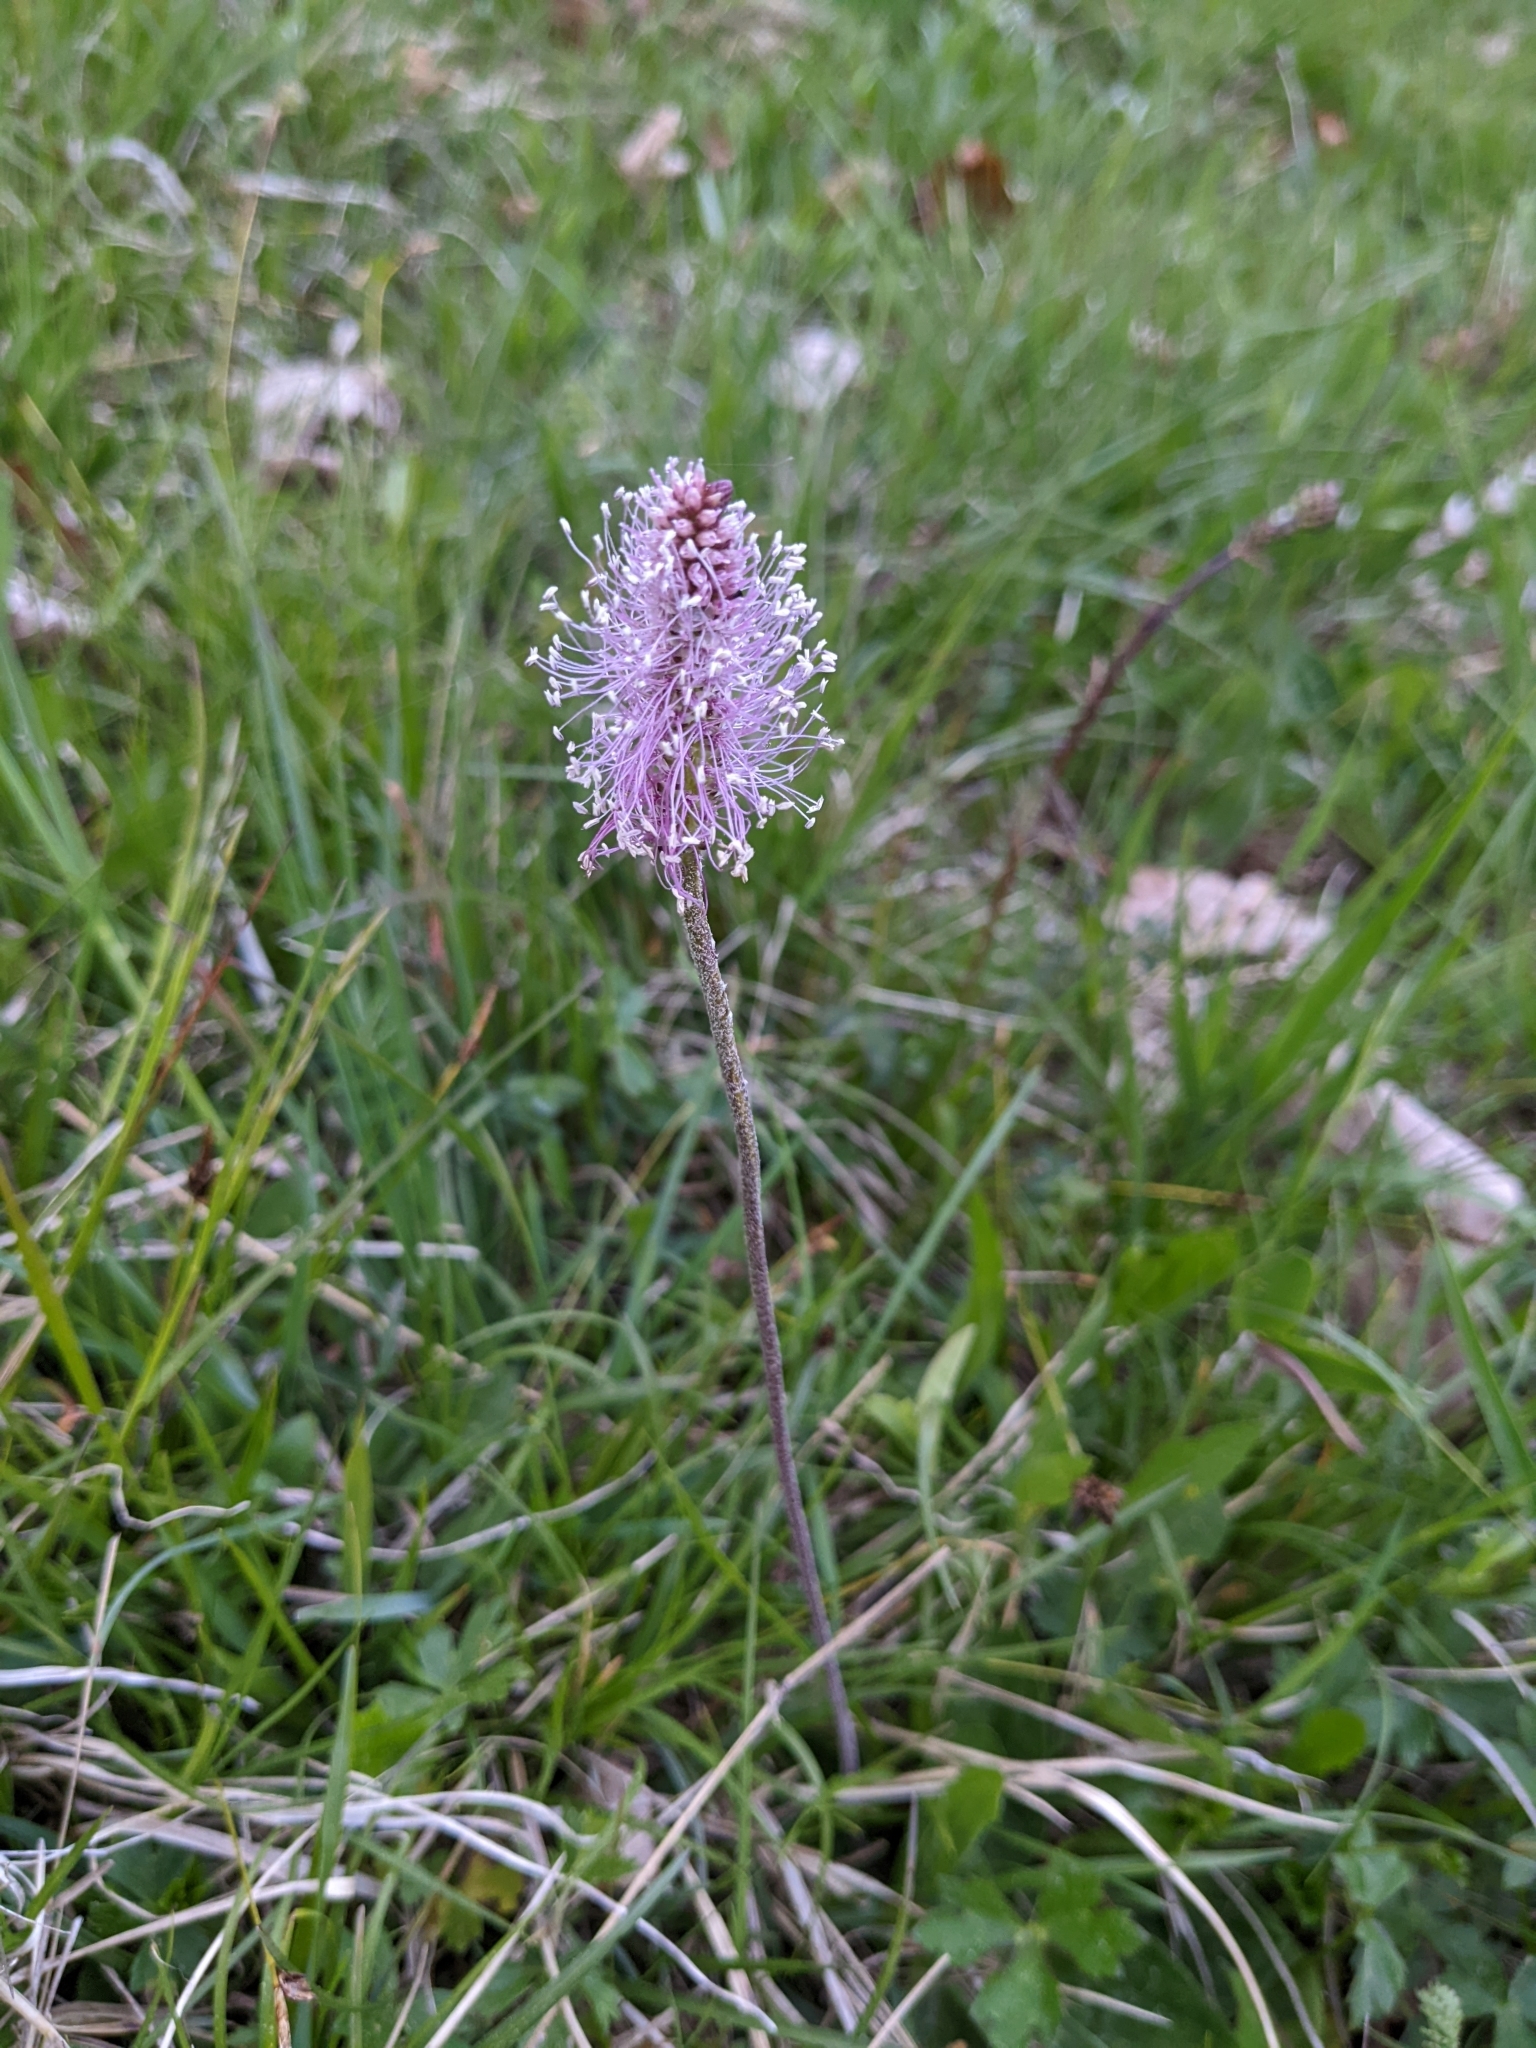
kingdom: Plantae
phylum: Tracheophyta
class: Magnoliopsida
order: Lamiales
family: Plantaginaceae
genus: Plantago
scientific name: Plantago media
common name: Hoary plantain
